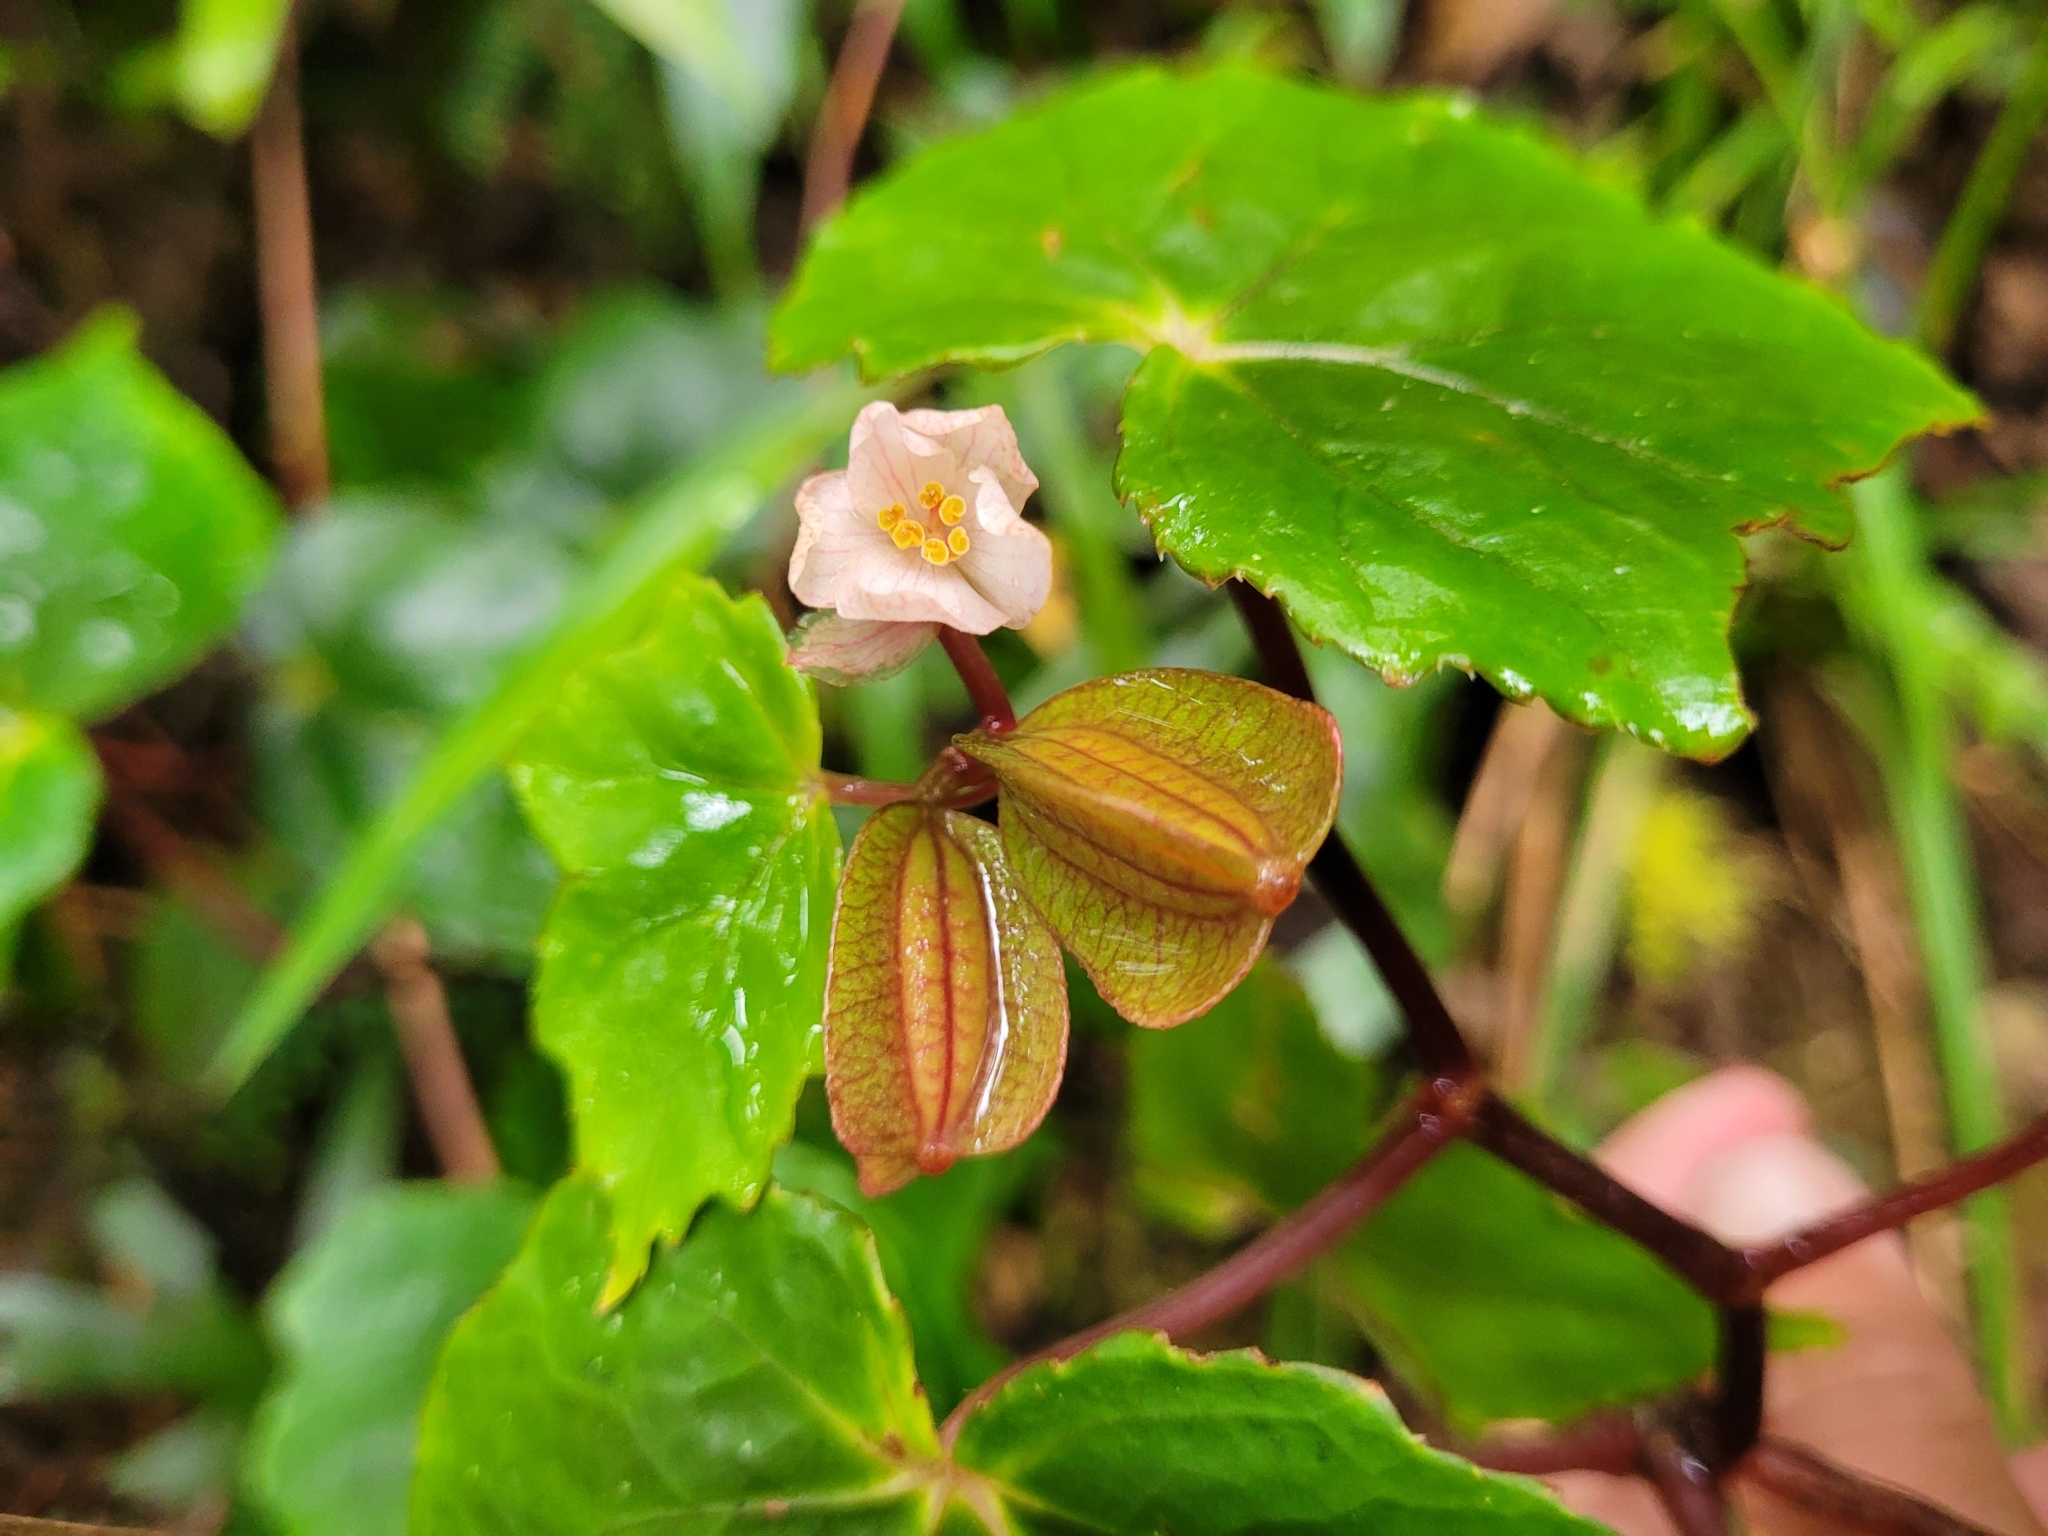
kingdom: Plantae
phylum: Tracheophyta
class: Magnoliopsida
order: Cucurbitales
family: Begoniaceae
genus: Begonia
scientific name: Begonia torajana
